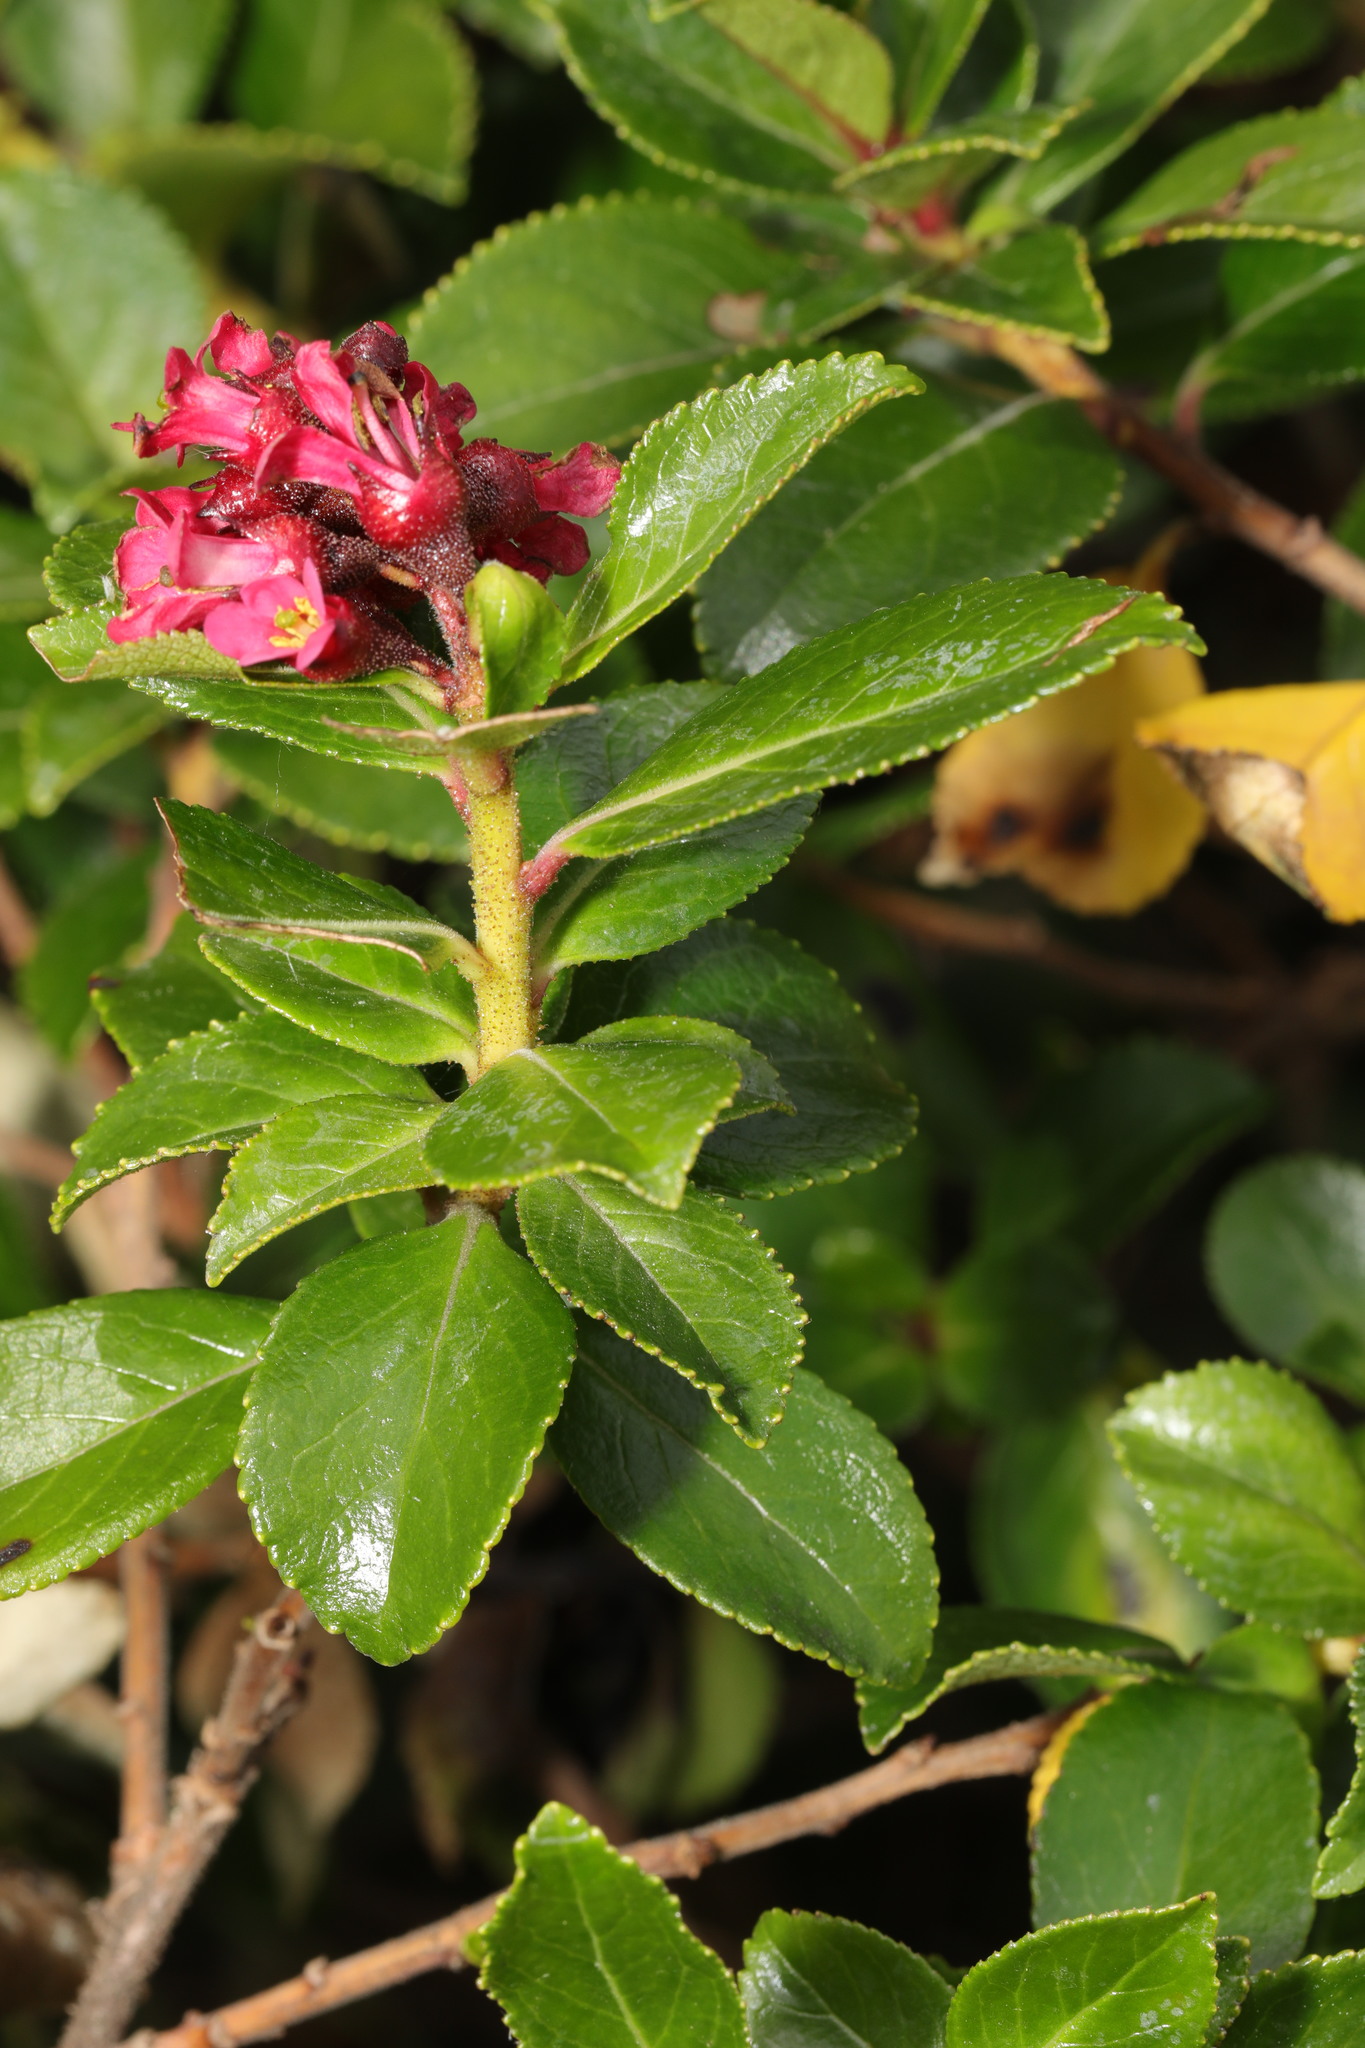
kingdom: Plantae
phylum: Tracheophyta
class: Magnoliopsida
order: Escalloniales
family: Escalloniaceae
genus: Escallonia
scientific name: Escallonia rubra
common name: Redclaws
